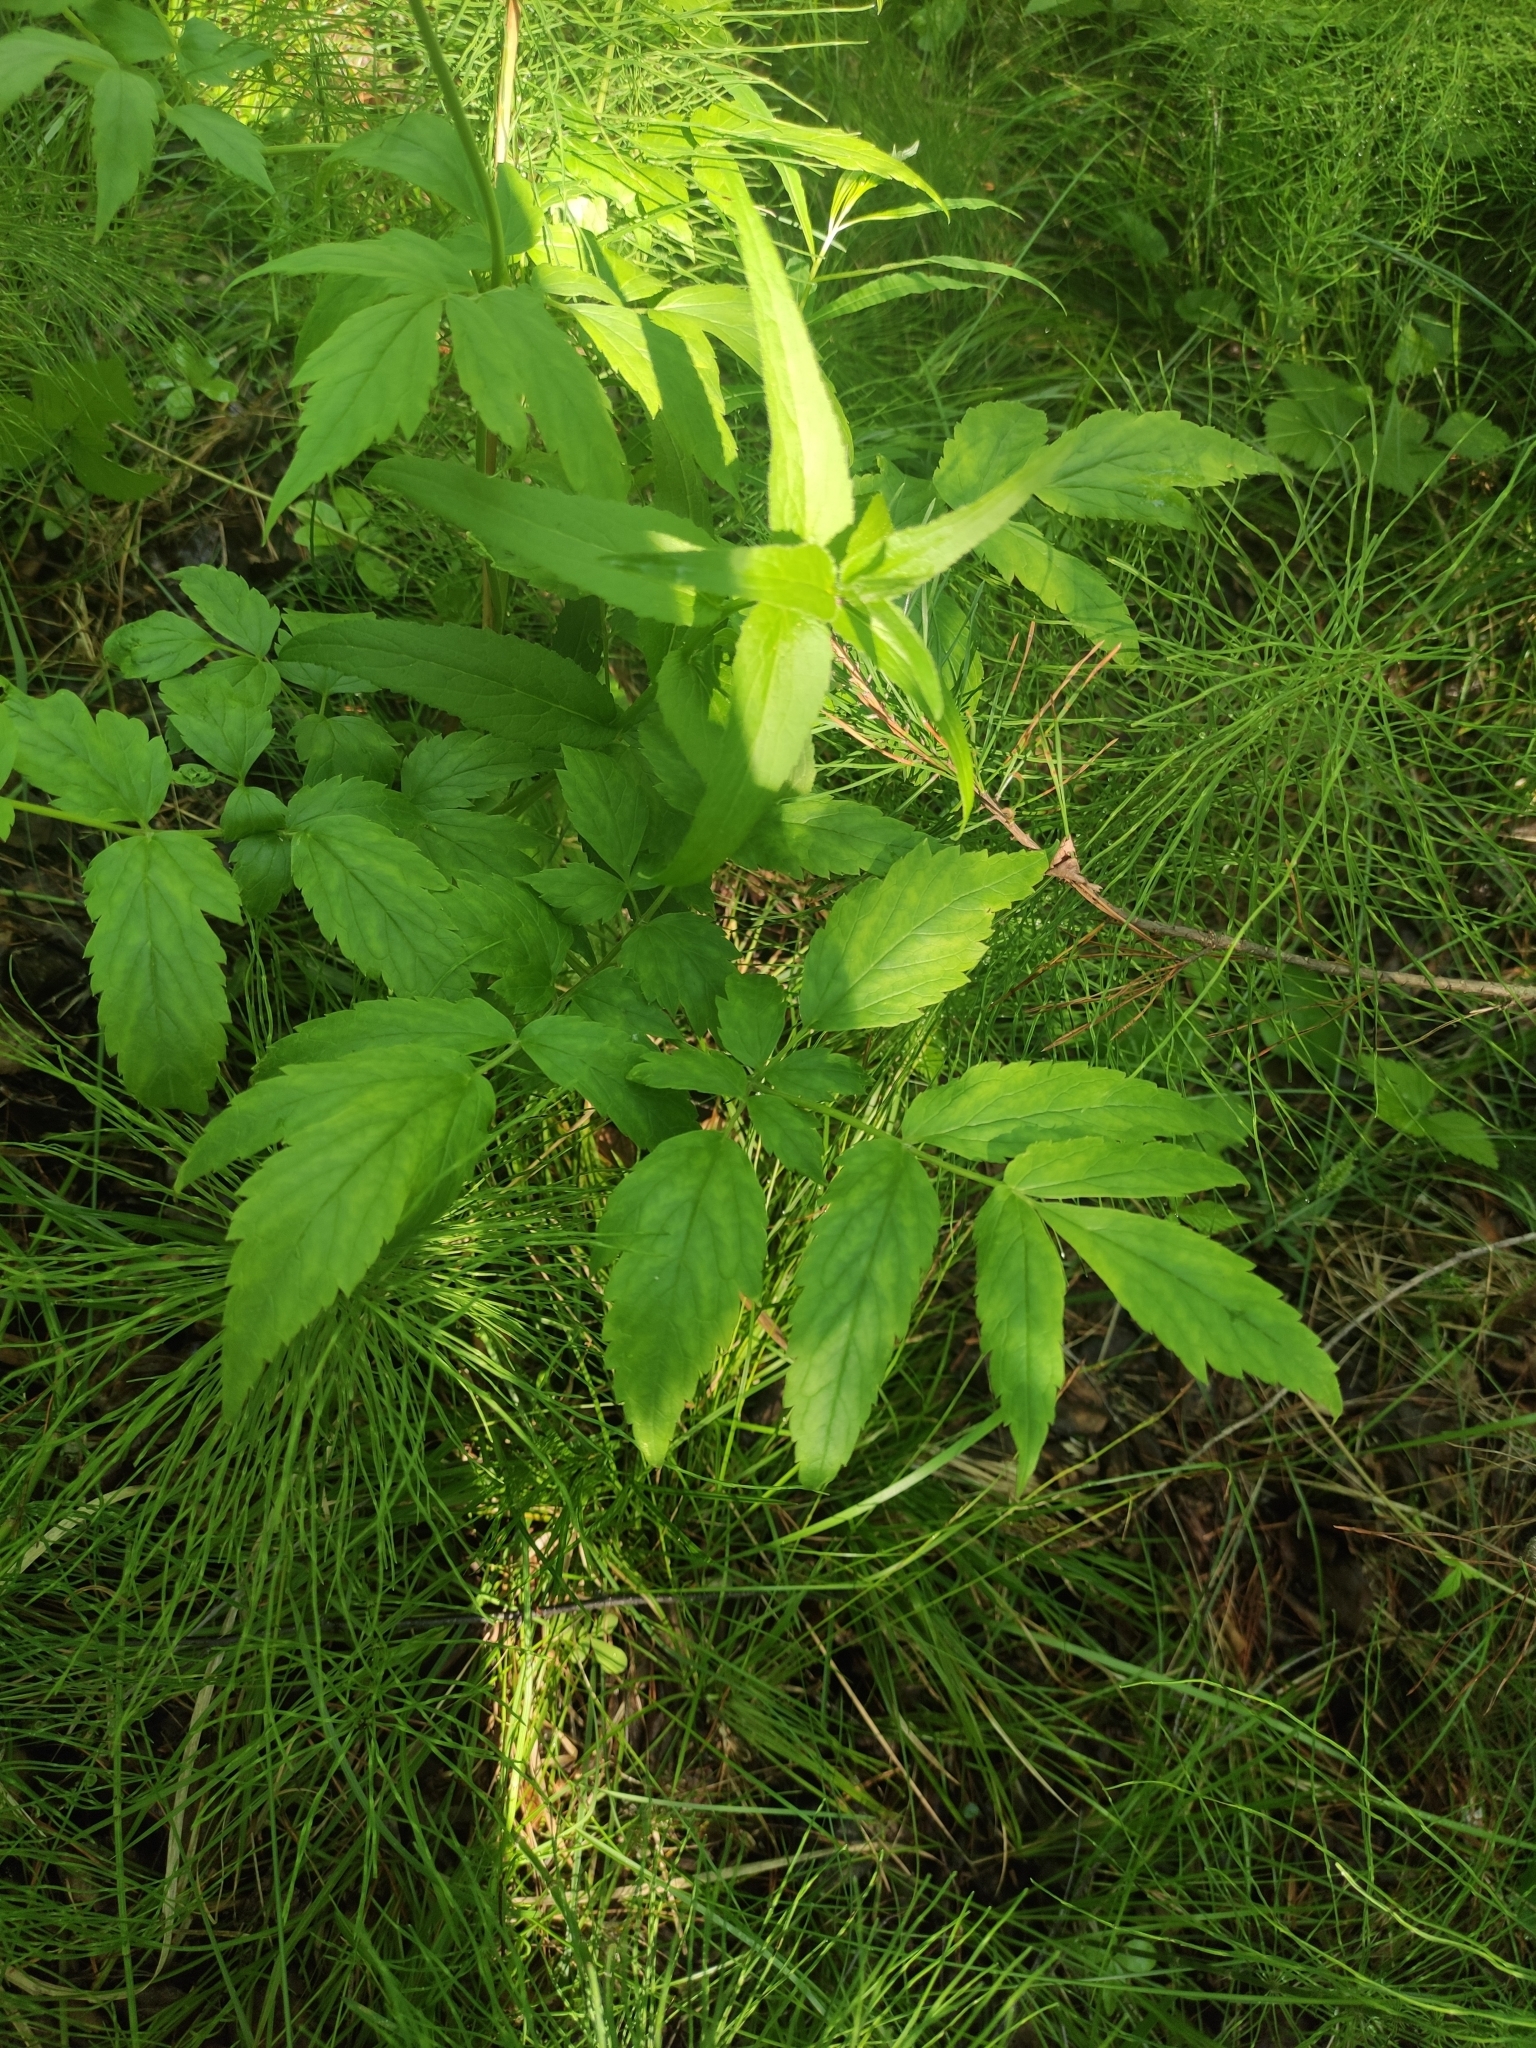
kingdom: Plantae
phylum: Tracheophyta
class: Magnoliopsida
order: Ranunculales
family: Ranunculaceae
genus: Actaea
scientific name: Actaea cimicifuga
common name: Chinese cimicifuga
